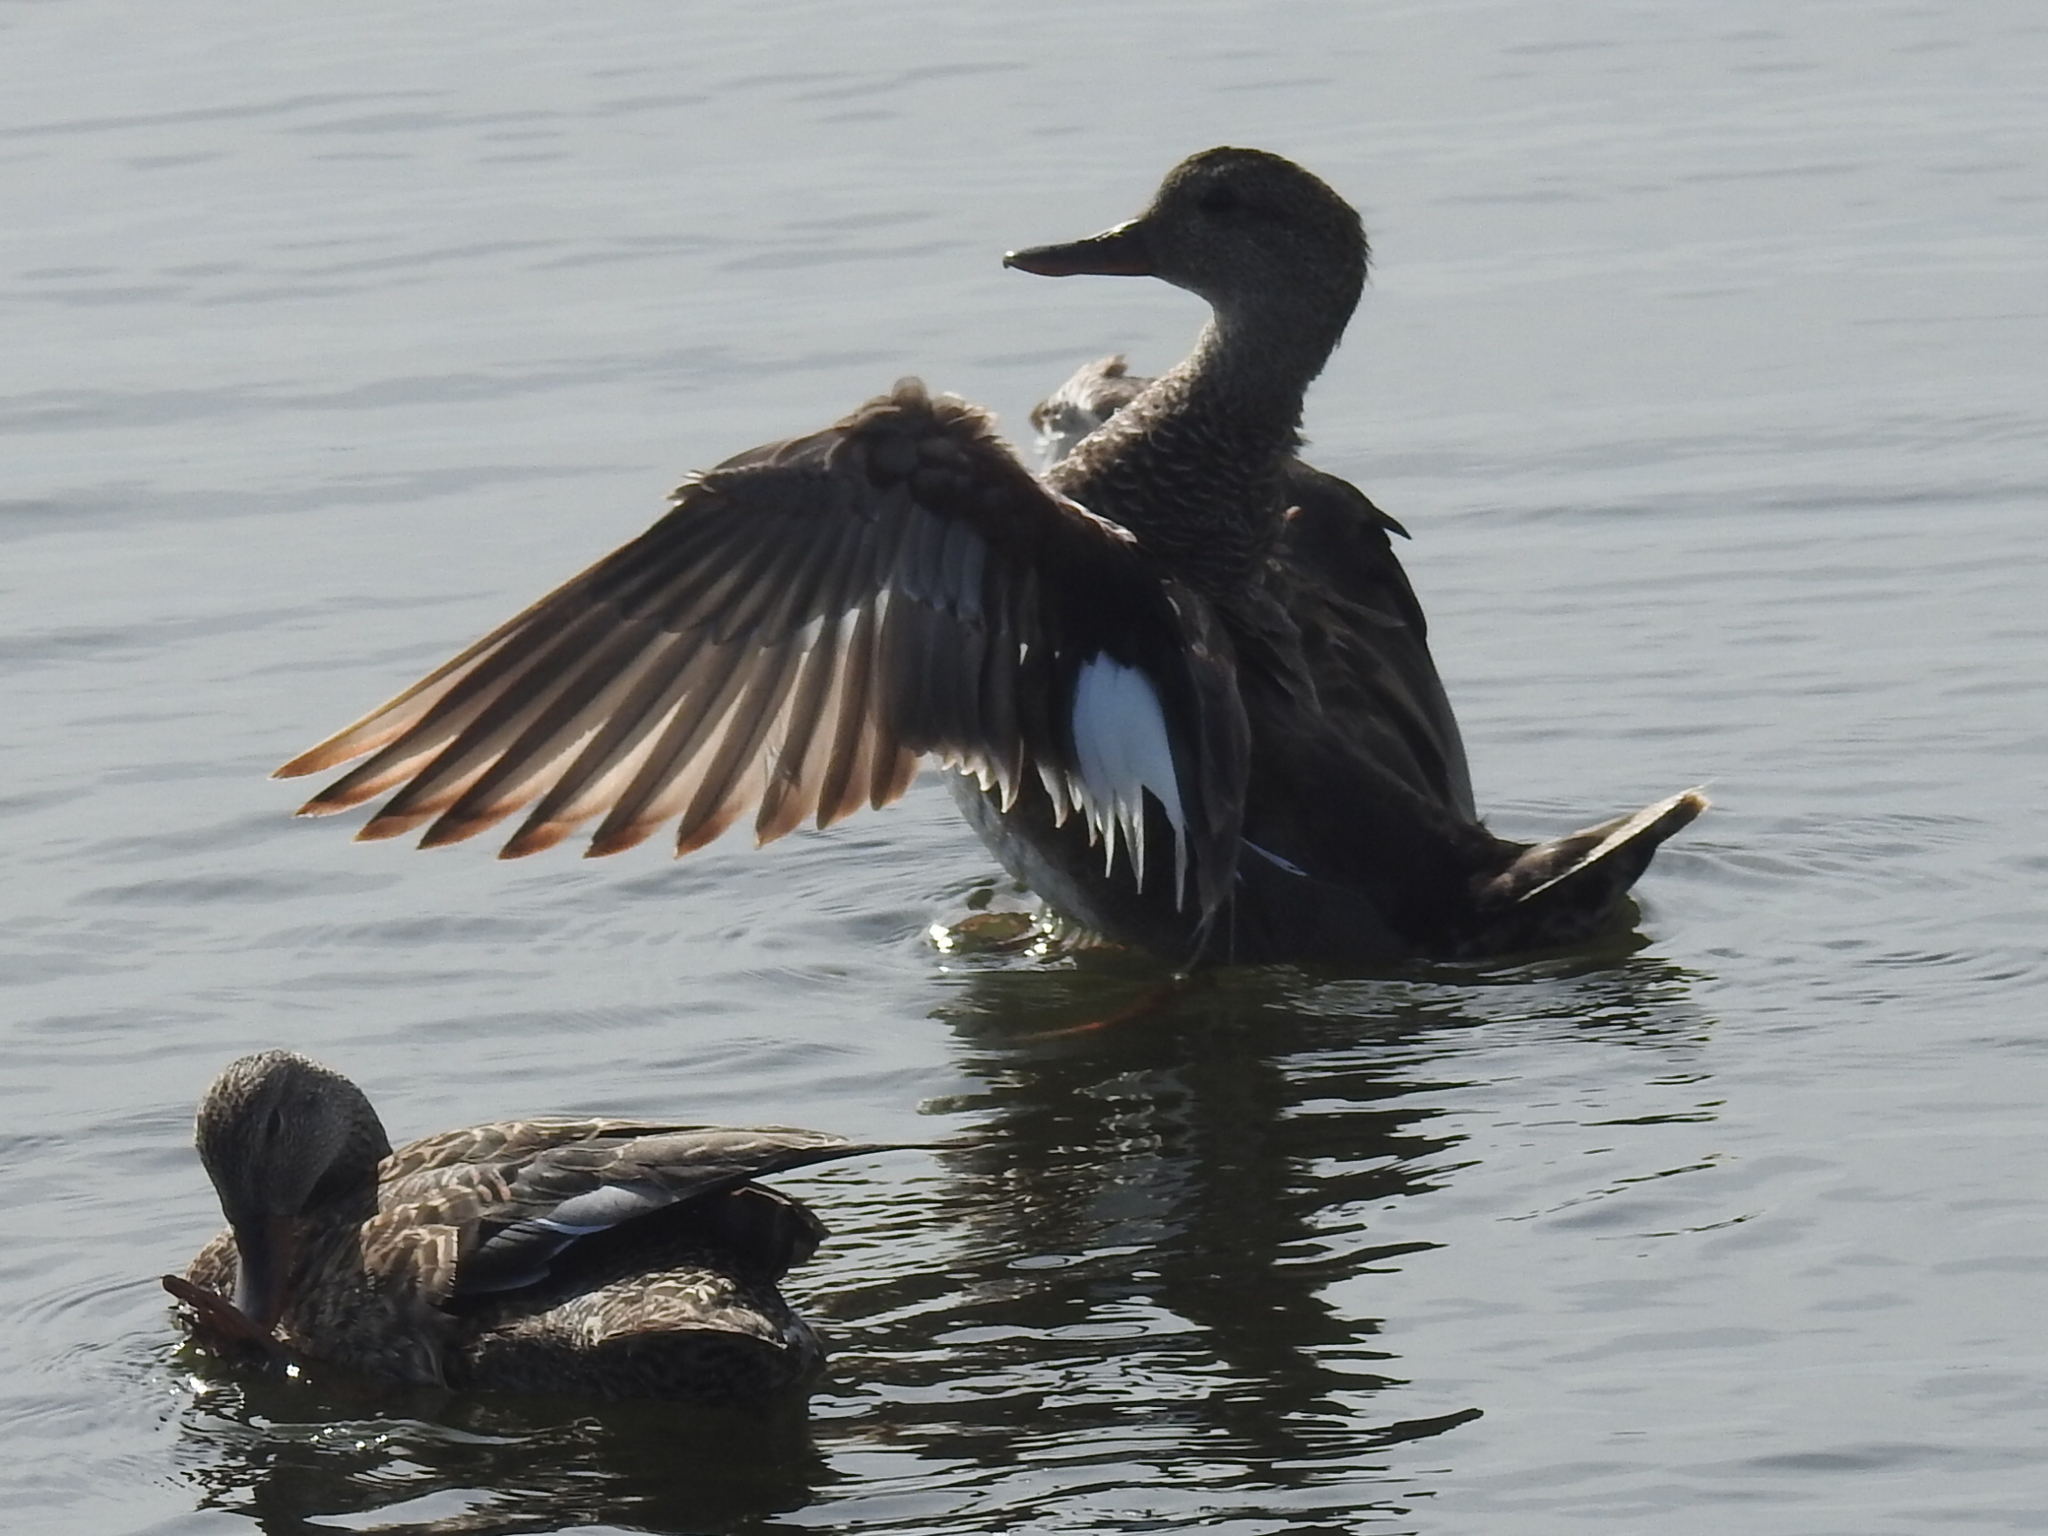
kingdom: Animalia
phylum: Chordata
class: Aves
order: Anseriformes
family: Anatidae
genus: Mareca
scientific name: Mareca strepera
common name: Gadwall
